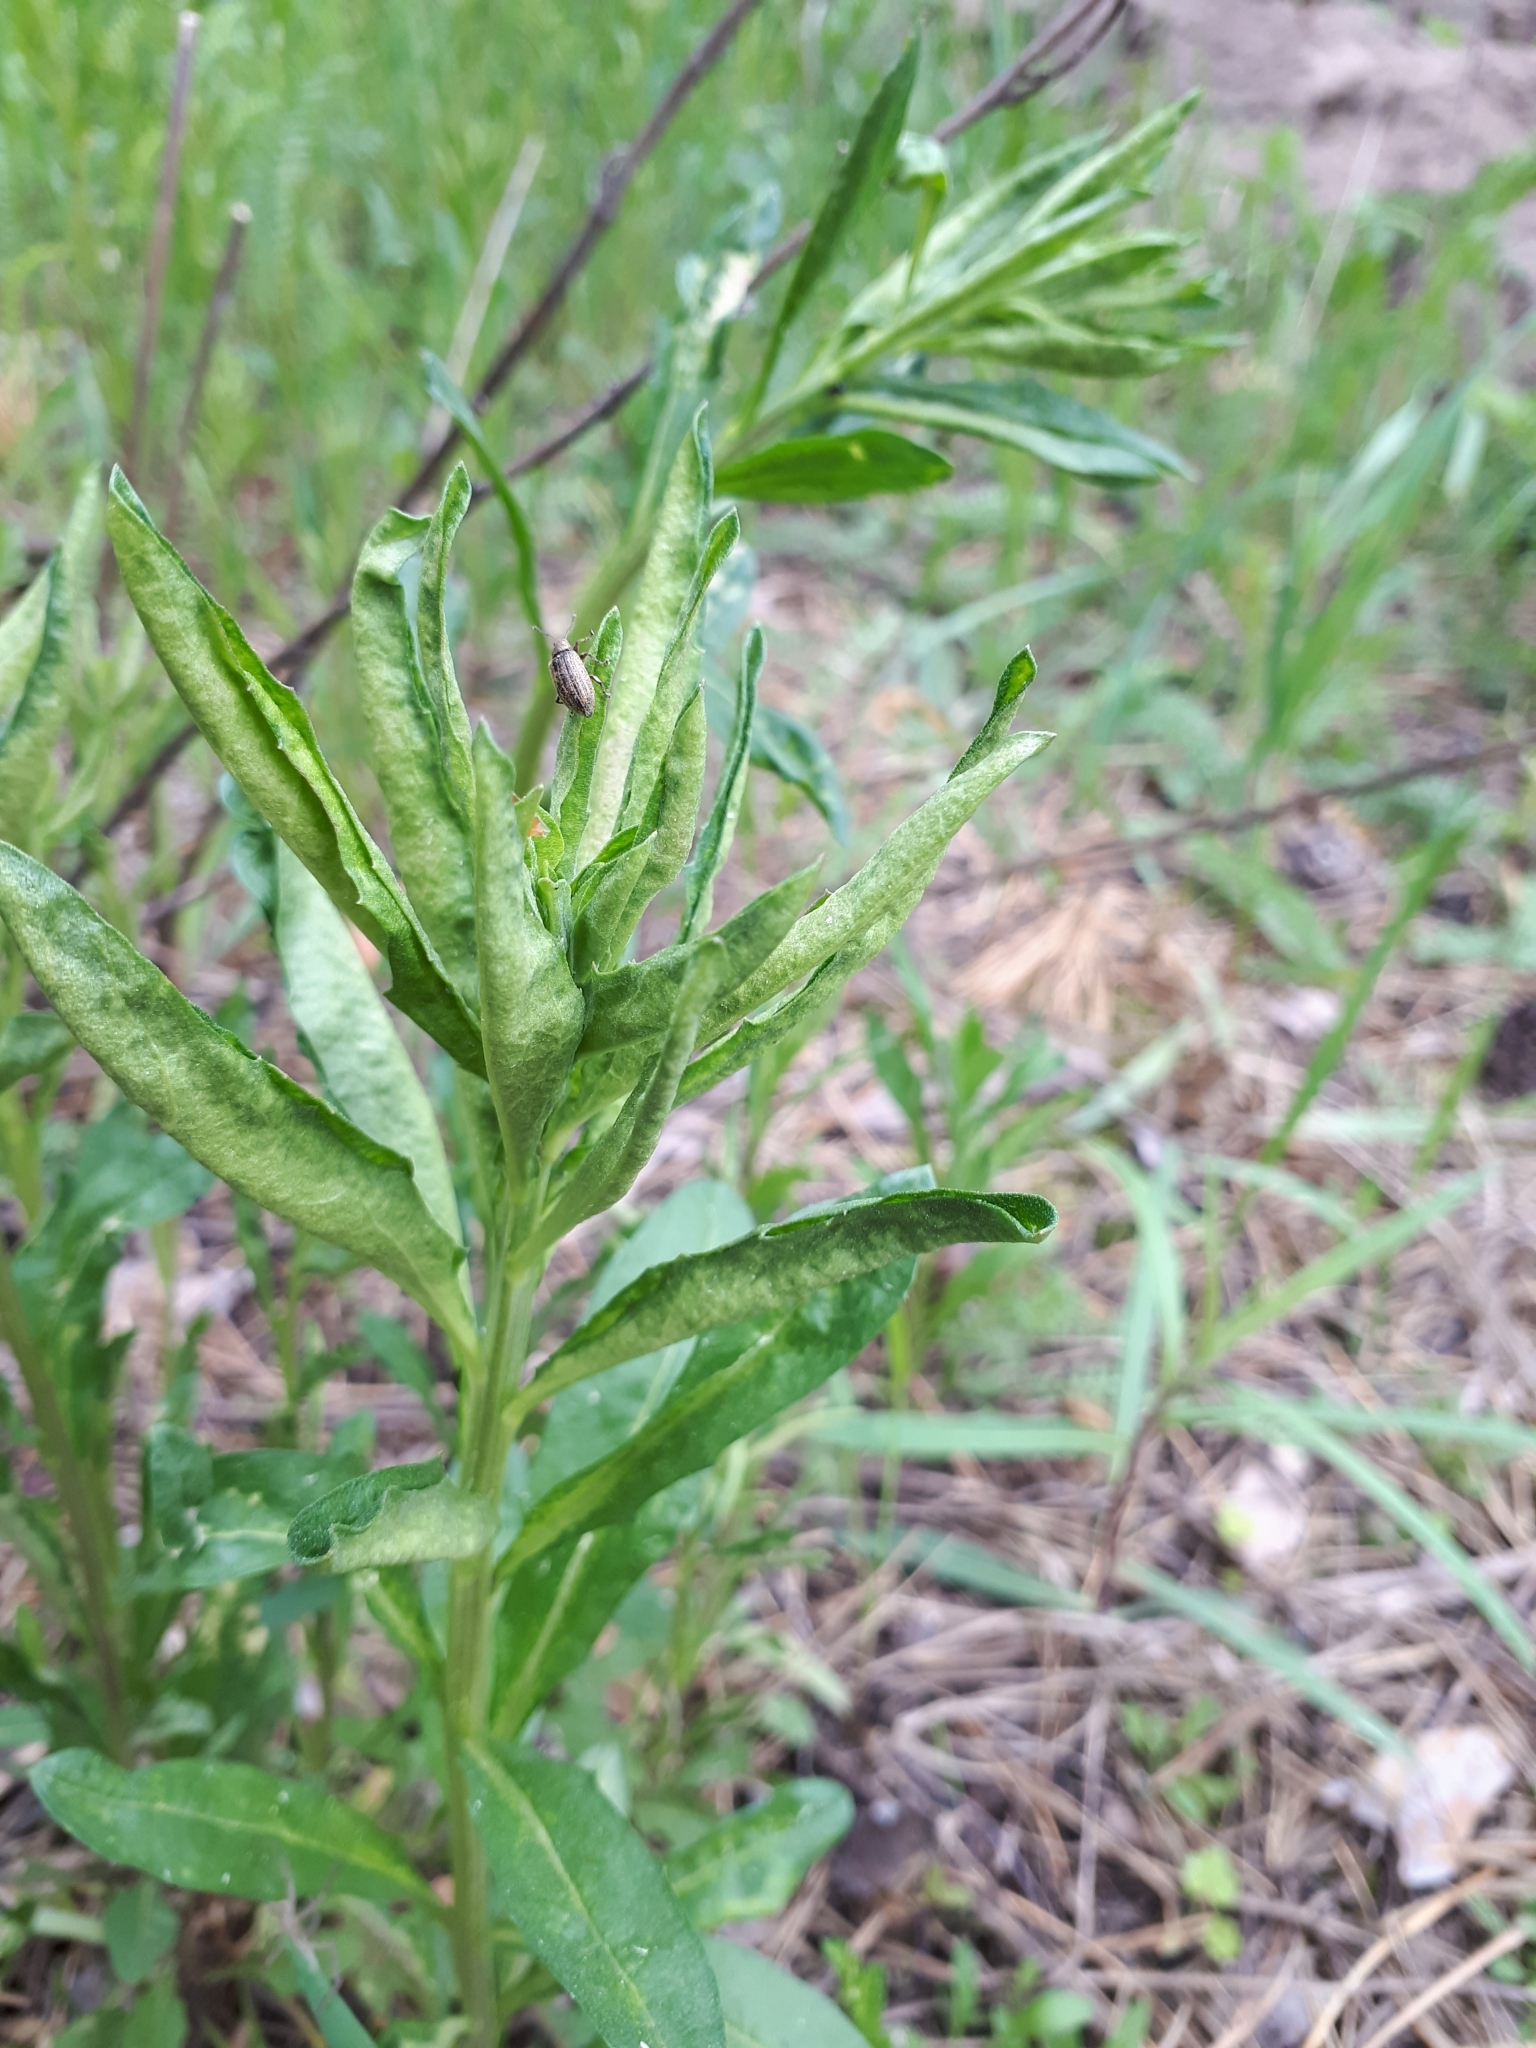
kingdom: Plantae
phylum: Tracheophyta
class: Magnoliopsida
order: Brassicales
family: Brassicaceae
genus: Erysimum
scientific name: Erysimum cheiranthoides
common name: Treacle mustard
